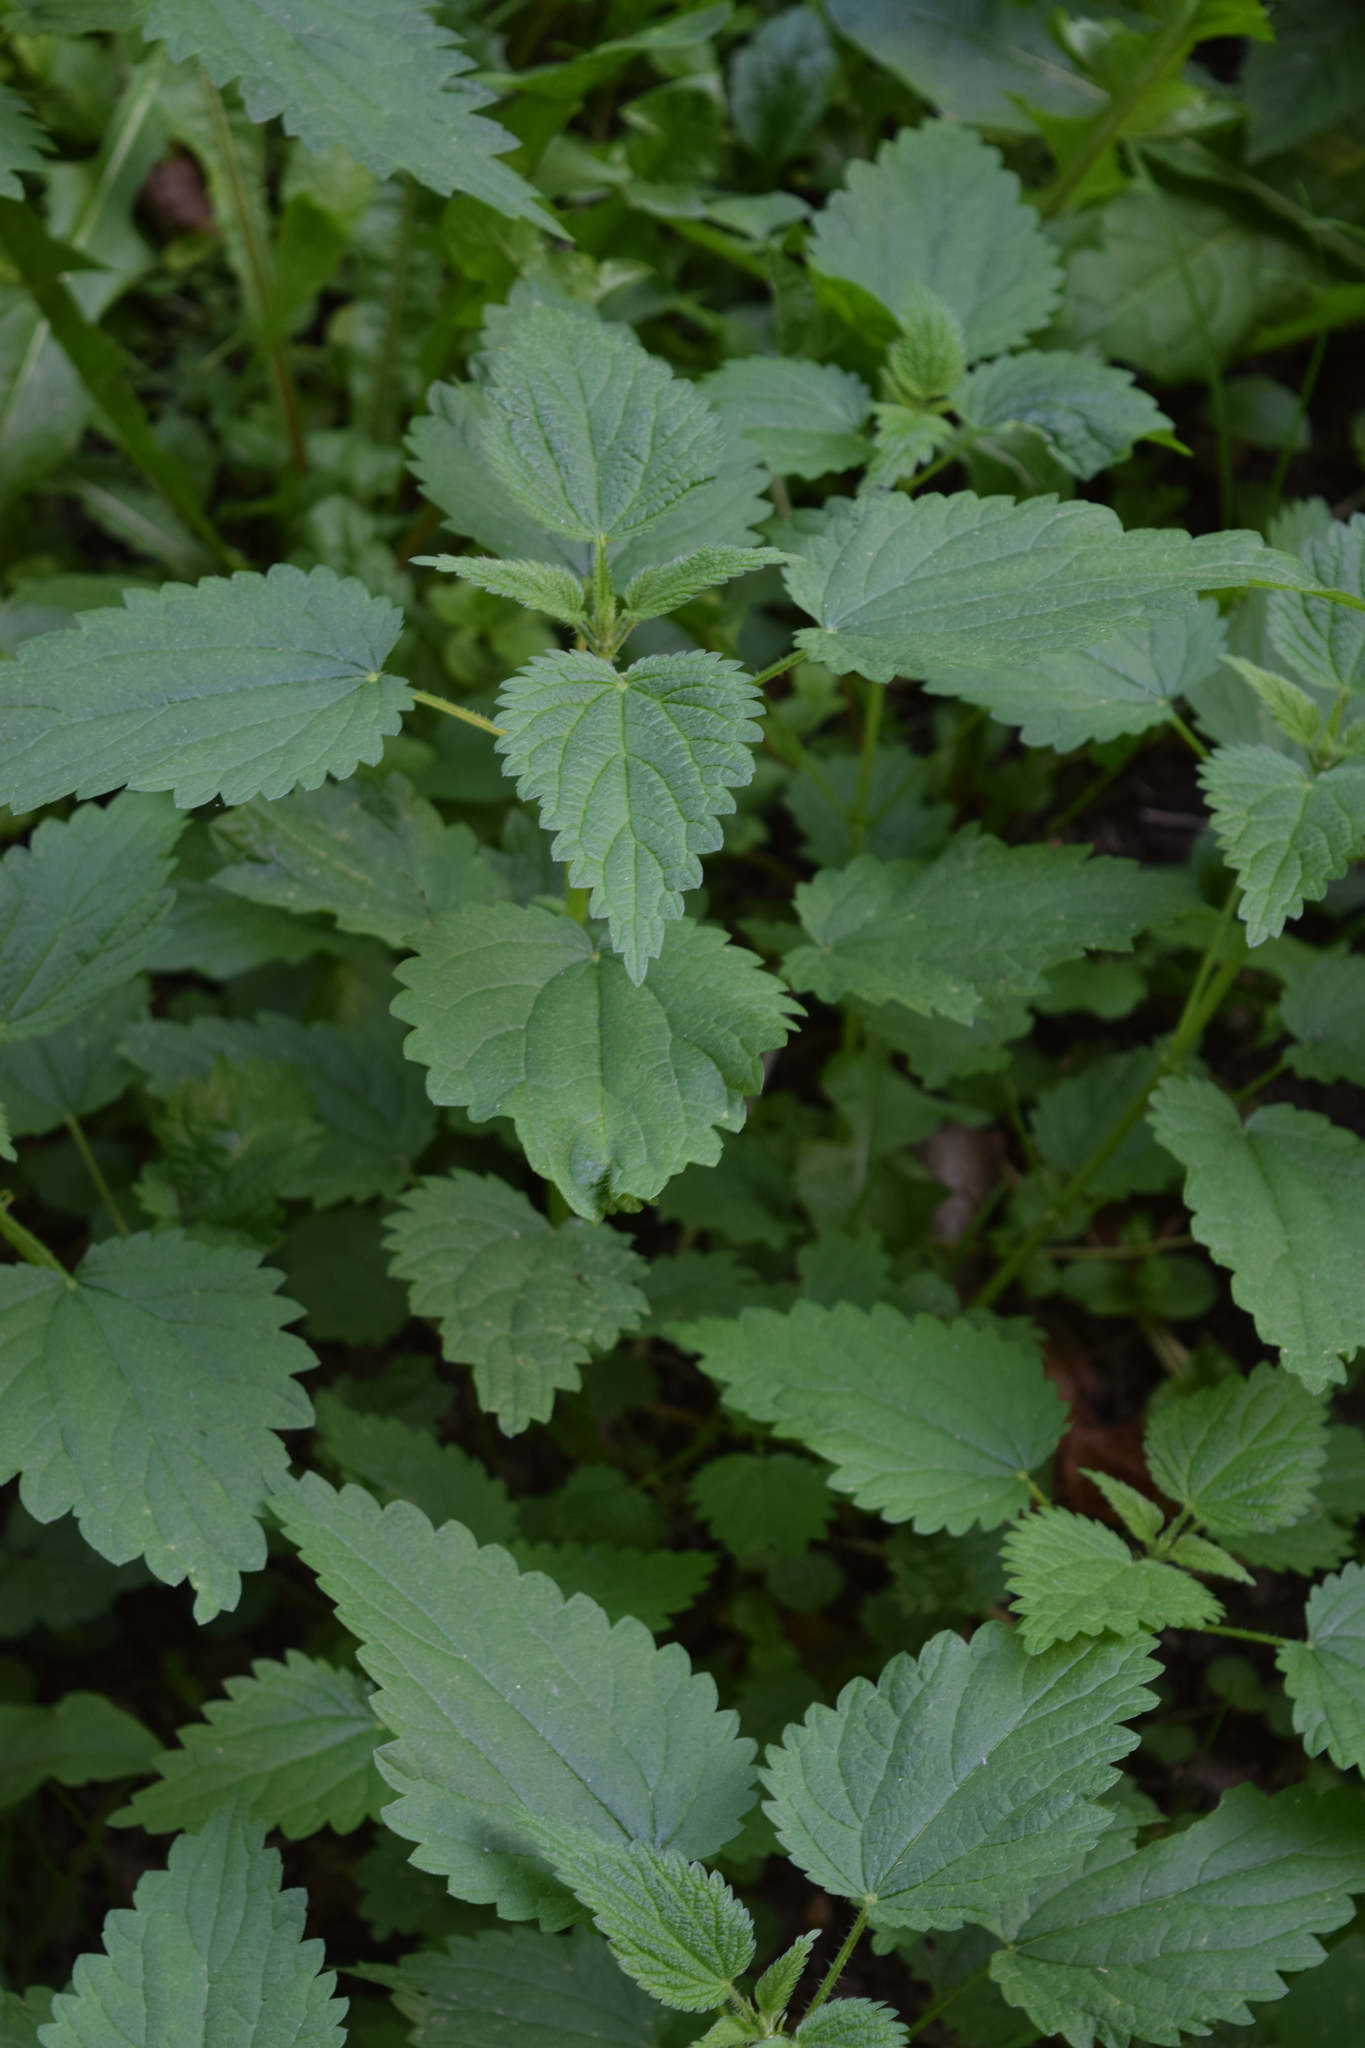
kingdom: Plantae
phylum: Tracheophyta
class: Magnoliopsida
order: Rosales
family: Urticaceae
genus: Urtica
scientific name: Urtica dioica
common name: Common nettle
